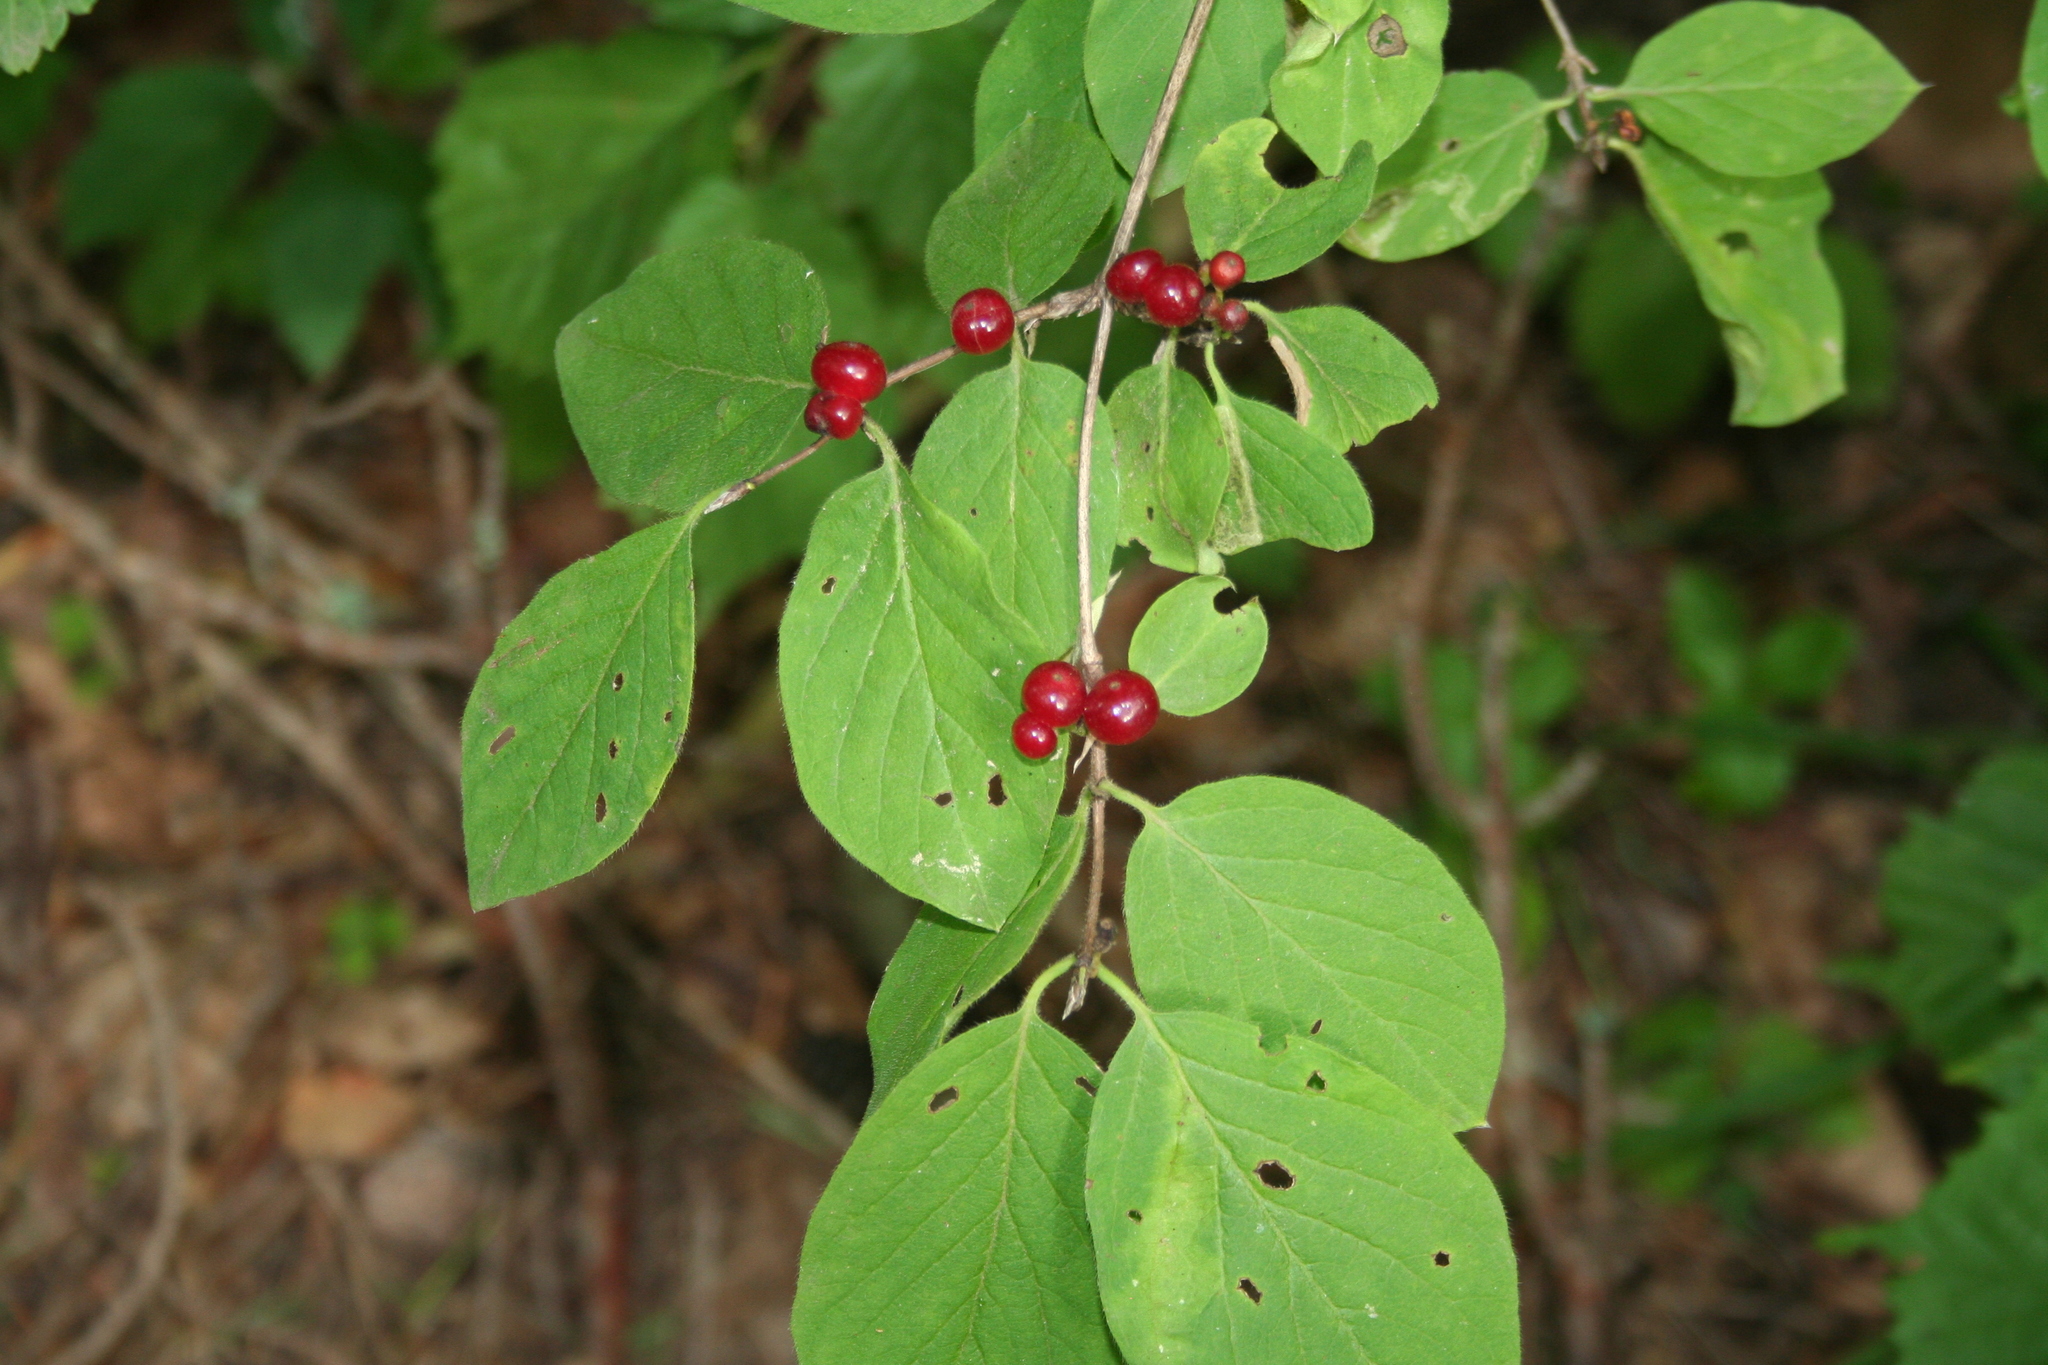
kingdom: Plantae
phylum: Tracheophyta
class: Magnoliopsida
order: Dipsacales
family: Caprifoliaceae
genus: Lonicera
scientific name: Lonicera xylosteum
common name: Fly honeysuckle
